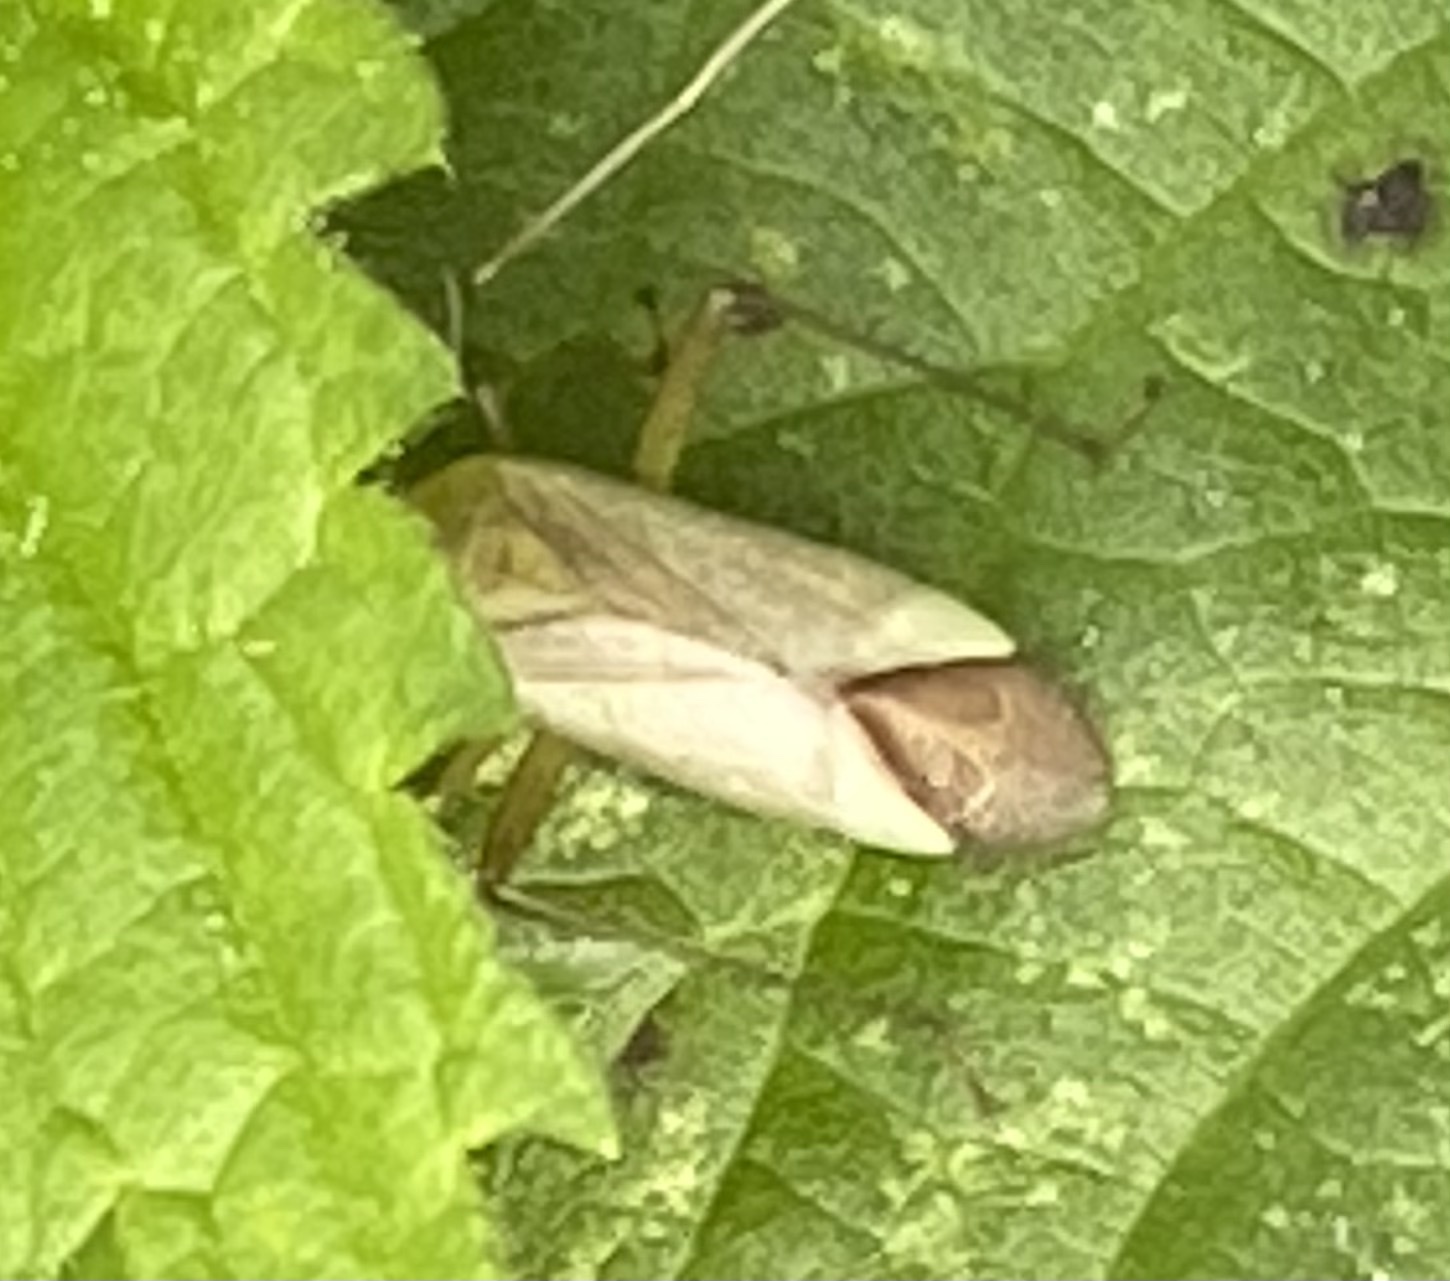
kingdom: Animalia
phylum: Arthropoda
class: Insecta
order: Hemiptera
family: Miridae
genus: Adelphocoris
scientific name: Adelphocoris quadripunctatus
